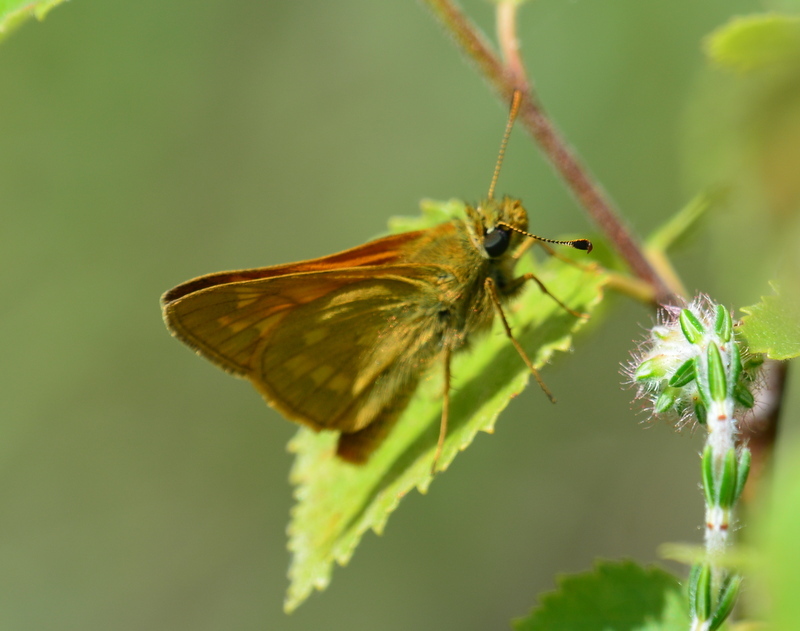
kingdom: Animalia
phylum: Arthropoda
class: Insecta
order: Lepidoptera
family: Hesperiidae
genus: Ochlodes
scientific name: Ochlodes venata
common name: Large skipper
